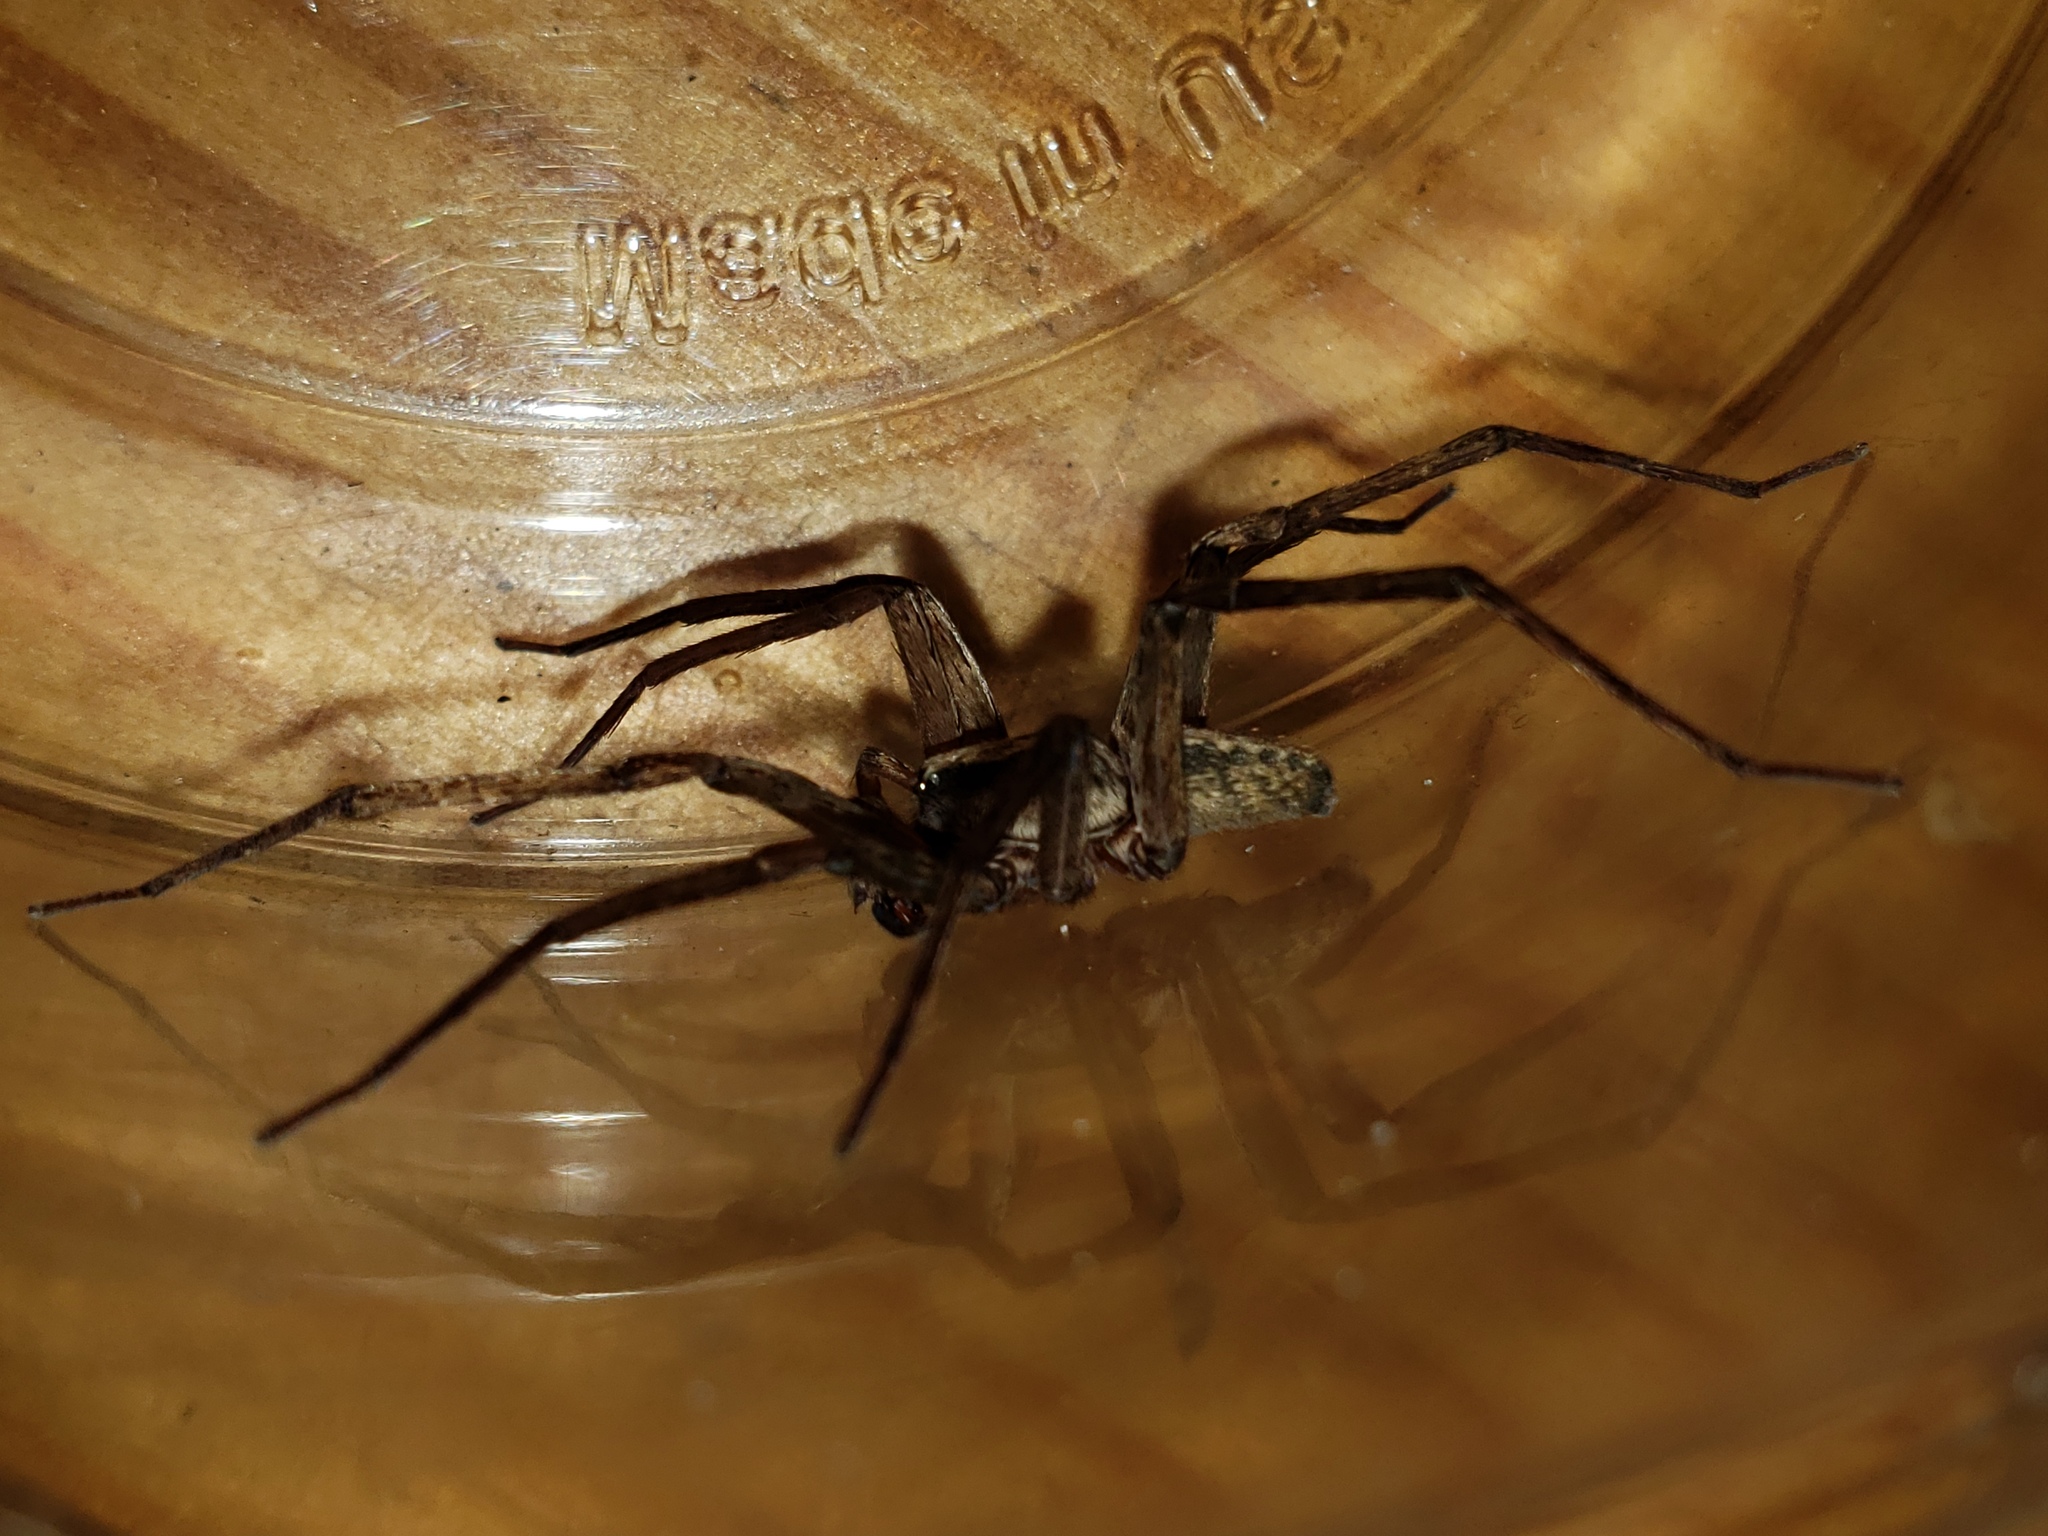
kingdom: Animalia
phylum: Arthropoda
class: Arachnida
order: Araneae
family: Ctenidae
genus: Ctenus
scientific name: Ctenus captiosus
